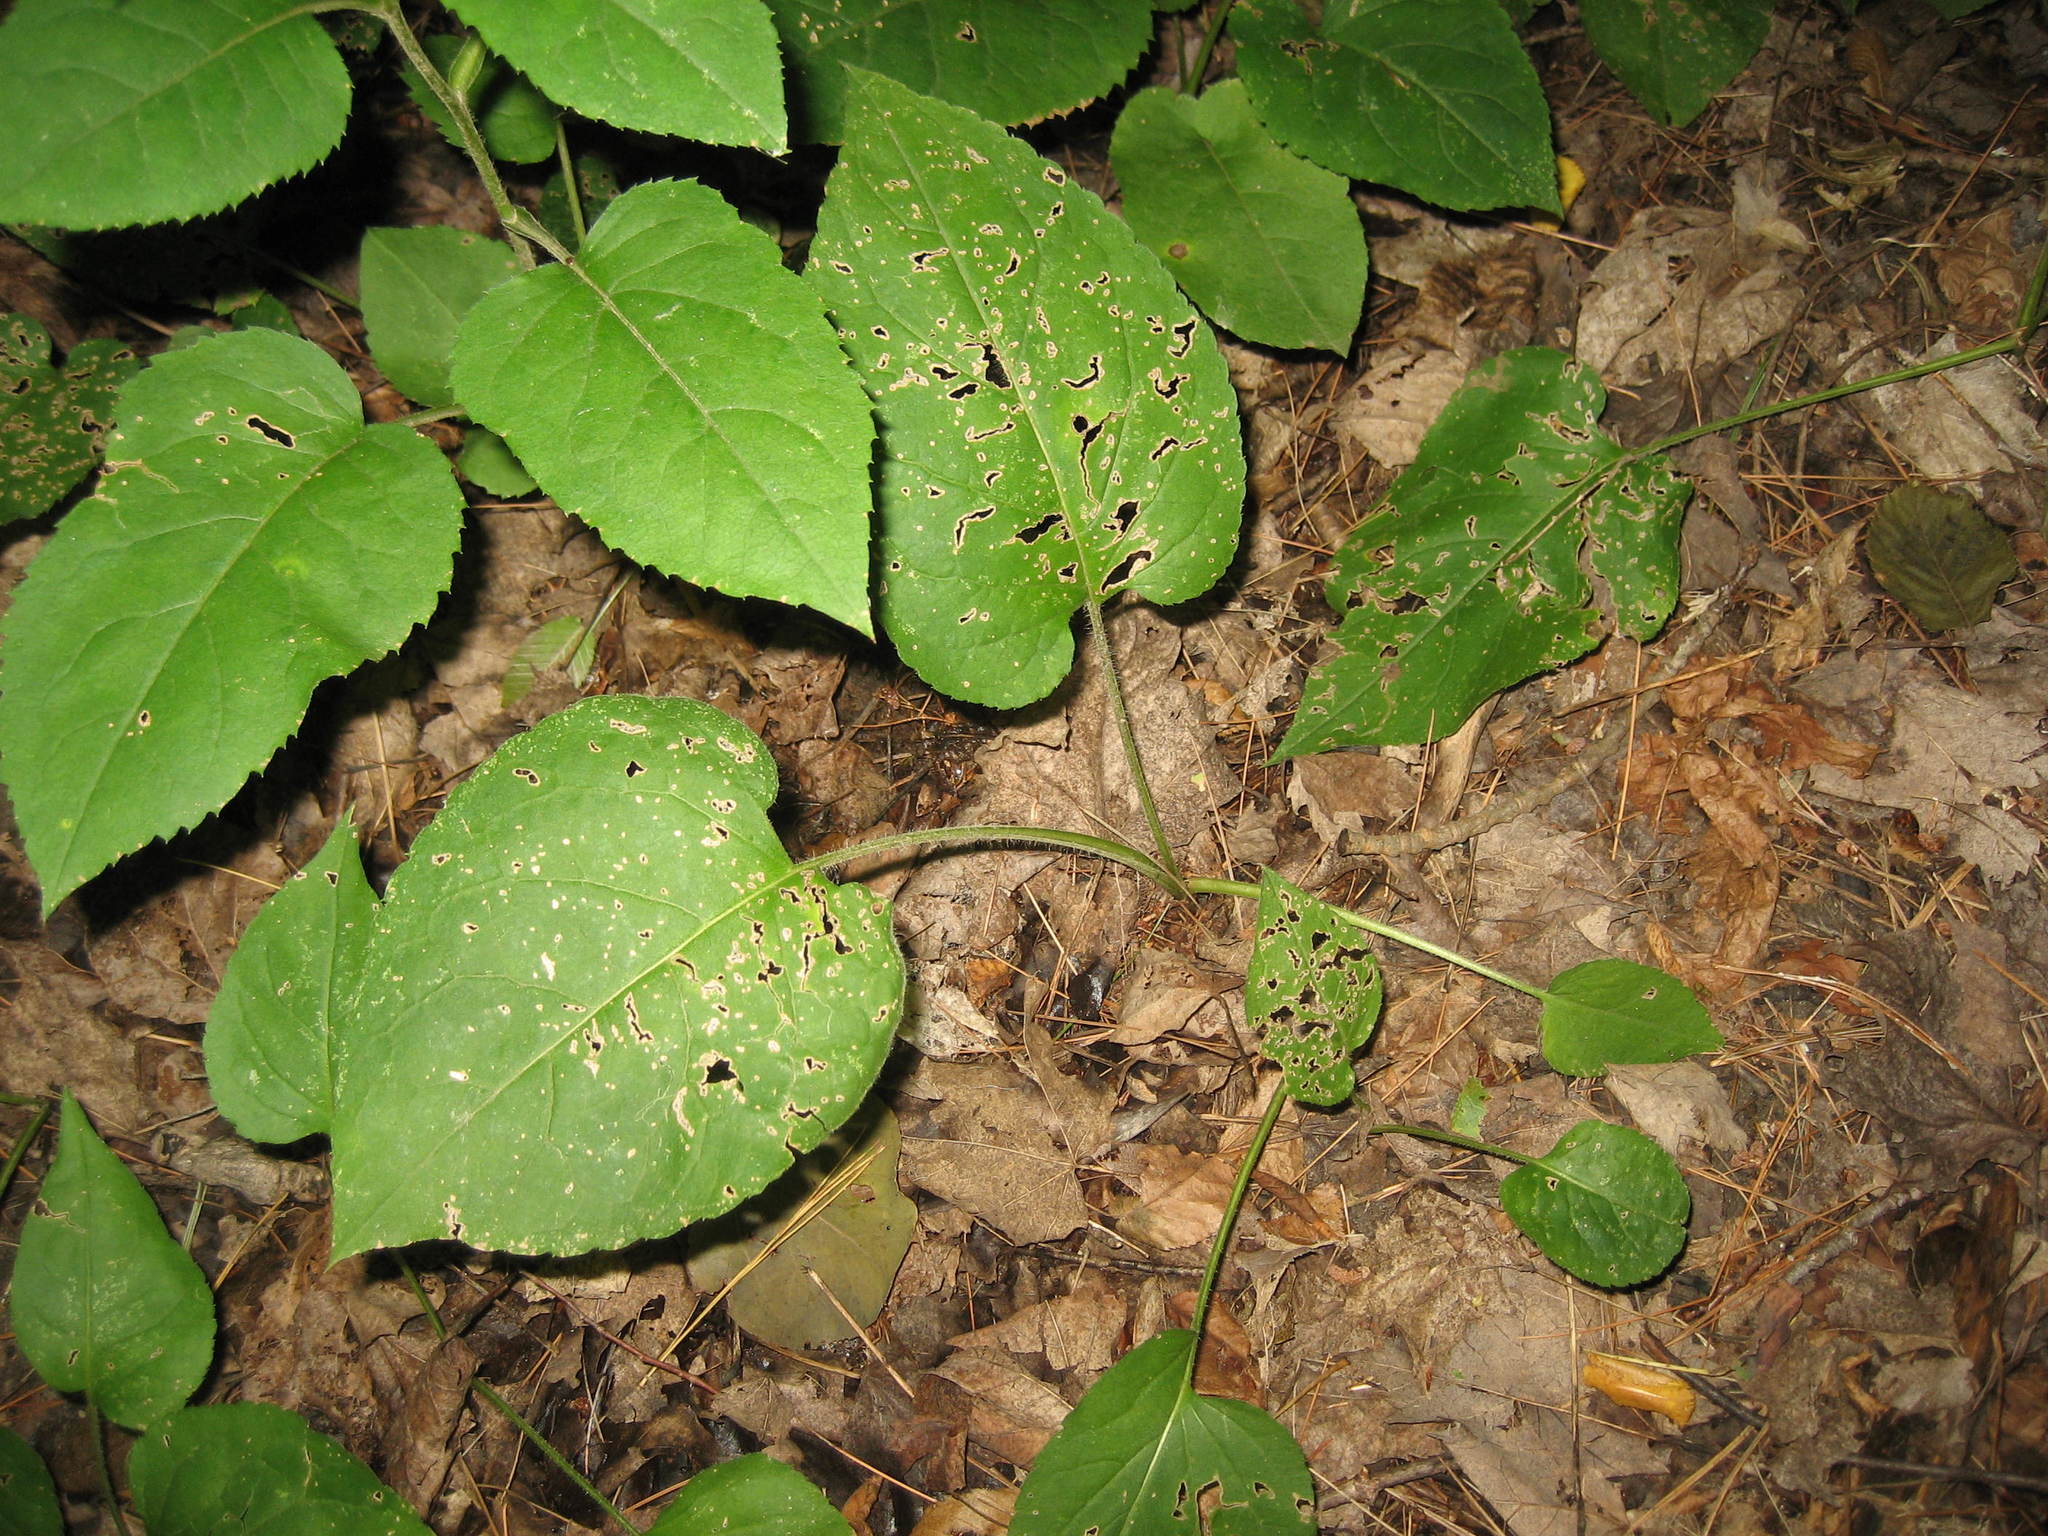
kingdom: Plantae
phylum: Tracheophyta
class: Magnoliopsida
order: Asterales
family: Asteraceae
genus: Eurybia
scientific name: Eurybia macrophylla
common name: Big-leaved aster
